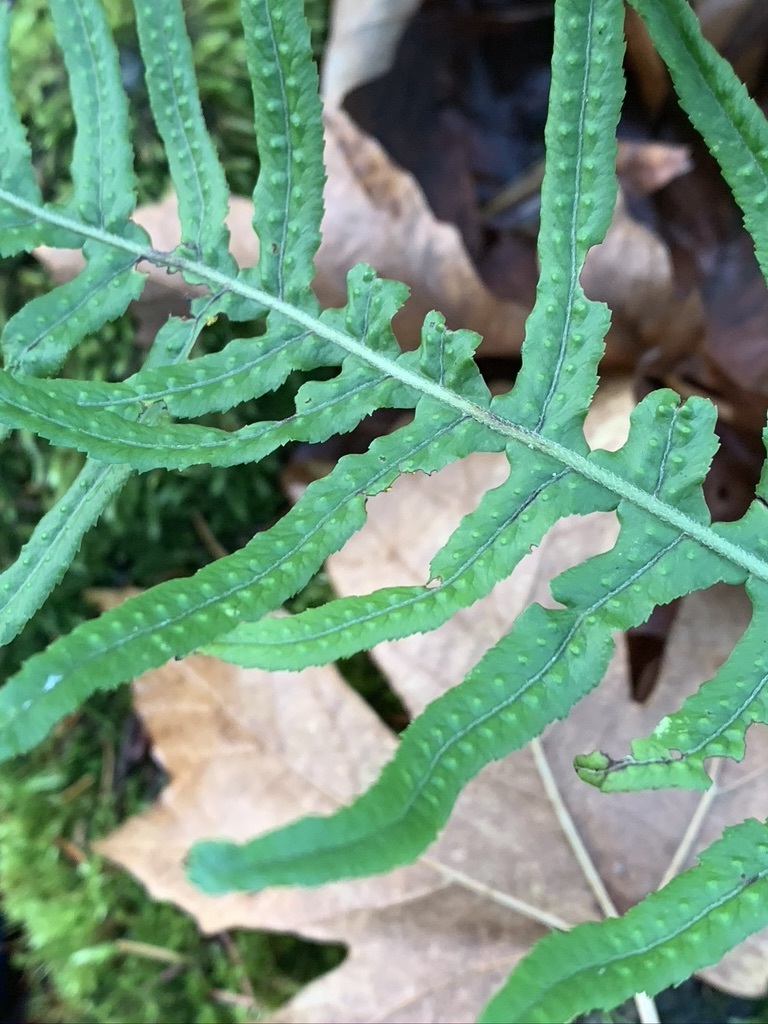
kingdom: Plantae
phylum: Tracheophyta
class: Polypodiopsida
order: Polypodiales
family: Polypodiaceae
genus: Polypodium
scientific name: Polypodium glycyrrhiza
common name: Licorice fern
